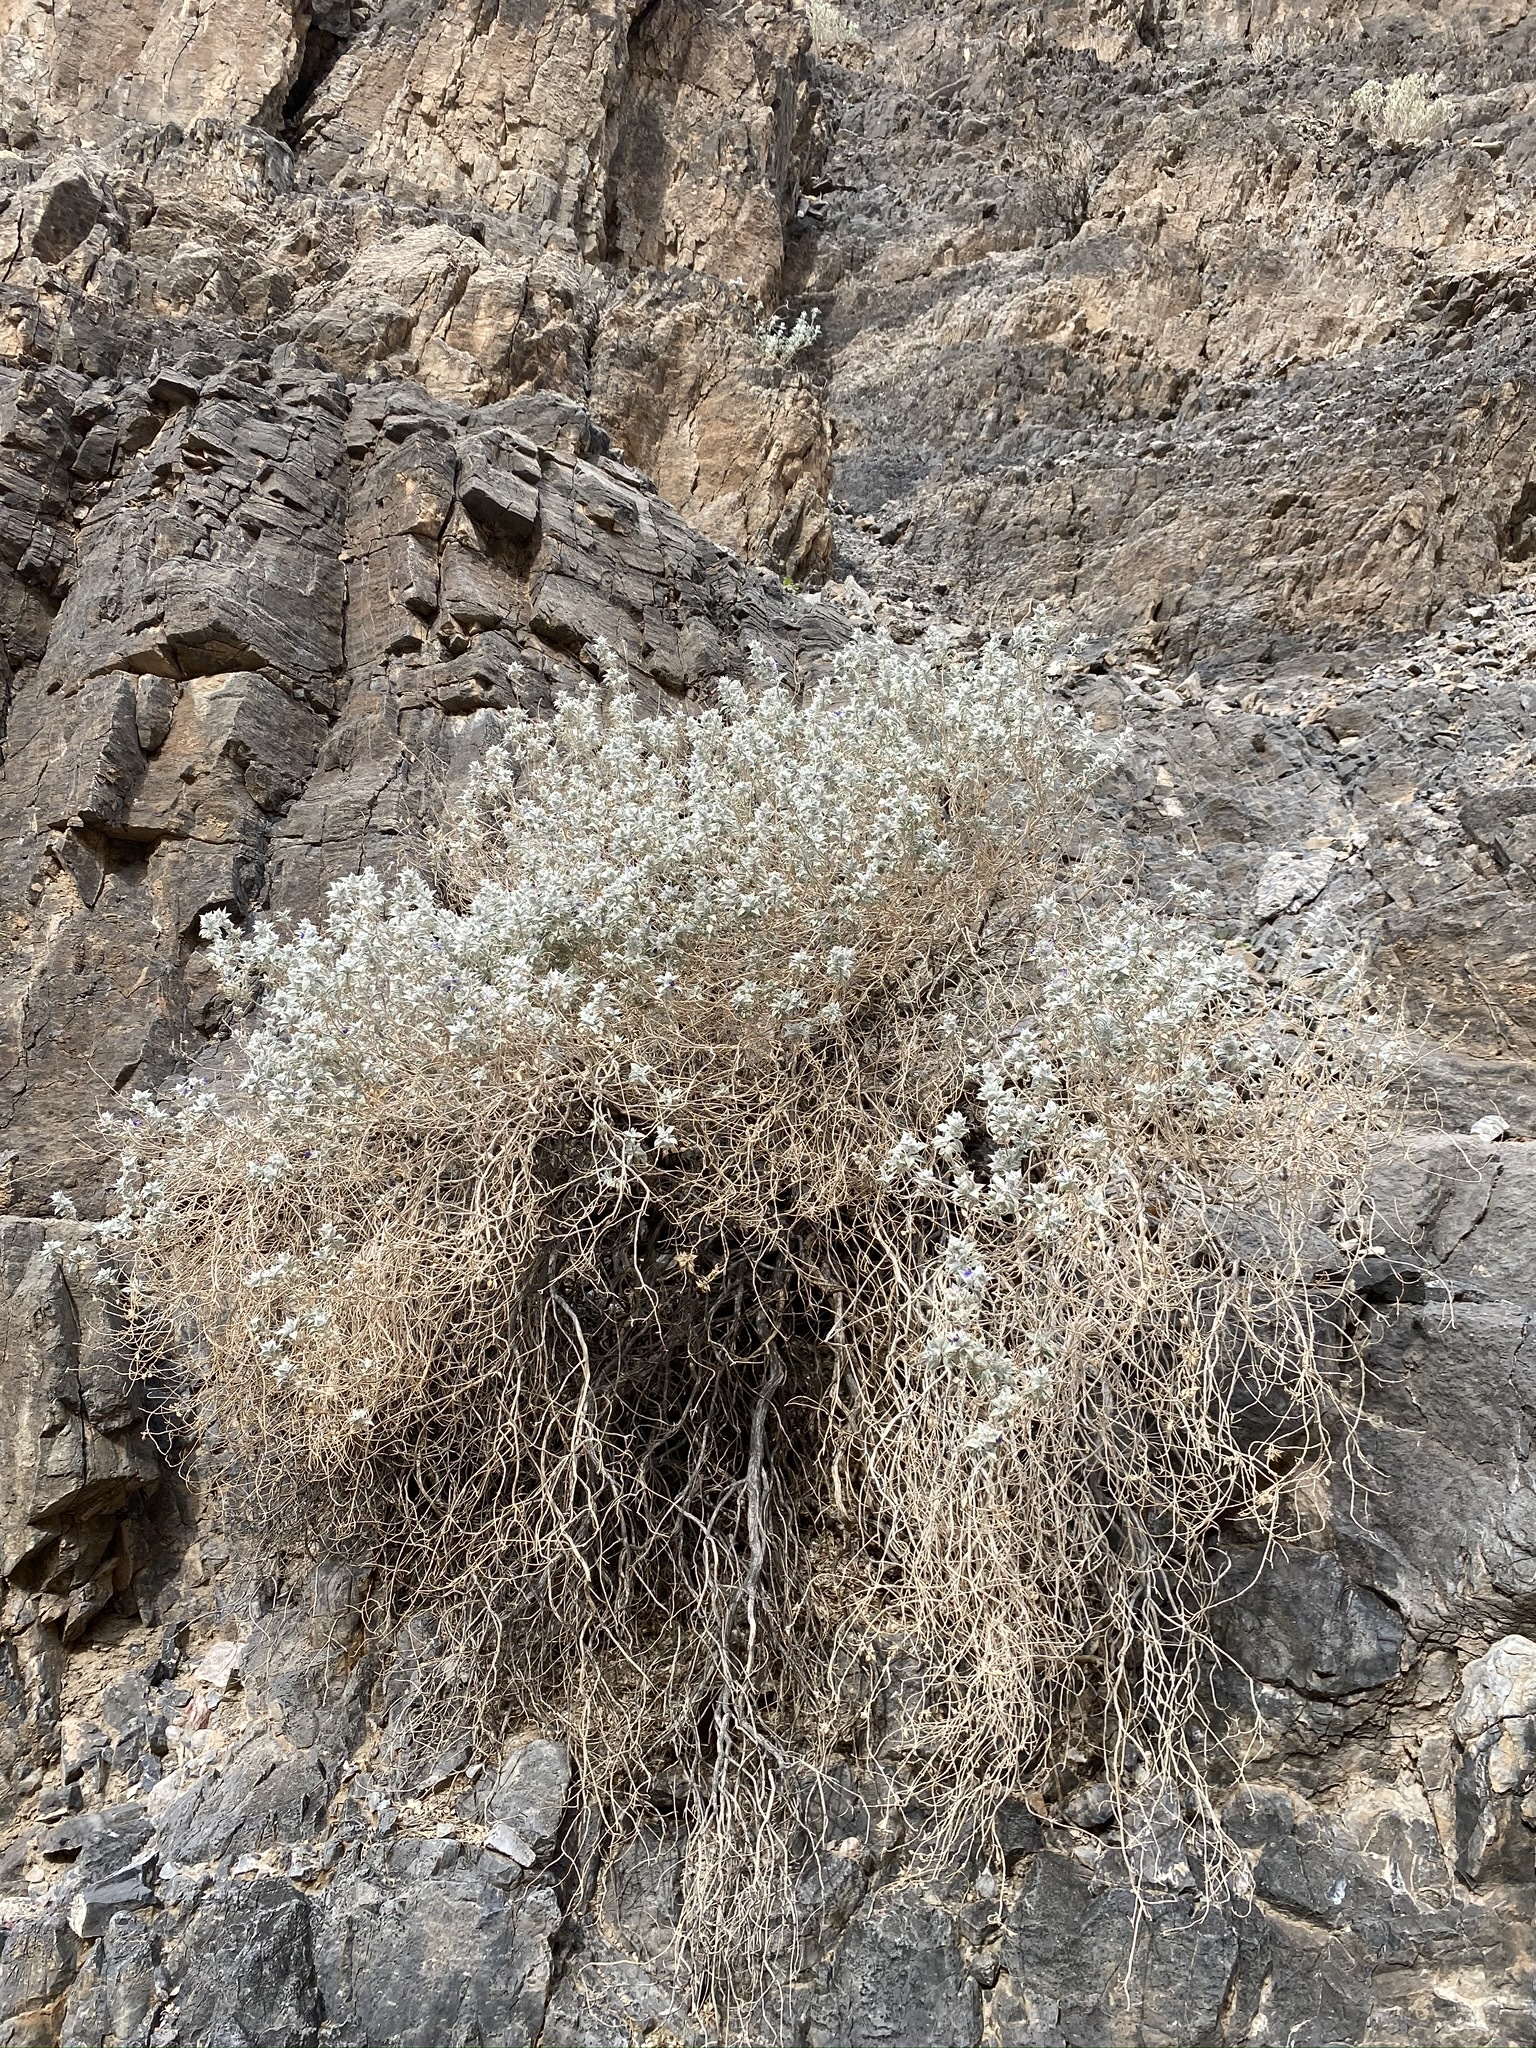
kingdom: Plantae
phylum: Tracheophyta
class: Magnoliopsida
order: Lamiales
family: Lamiaceae
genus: Salvia
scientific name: Salvia funerea
